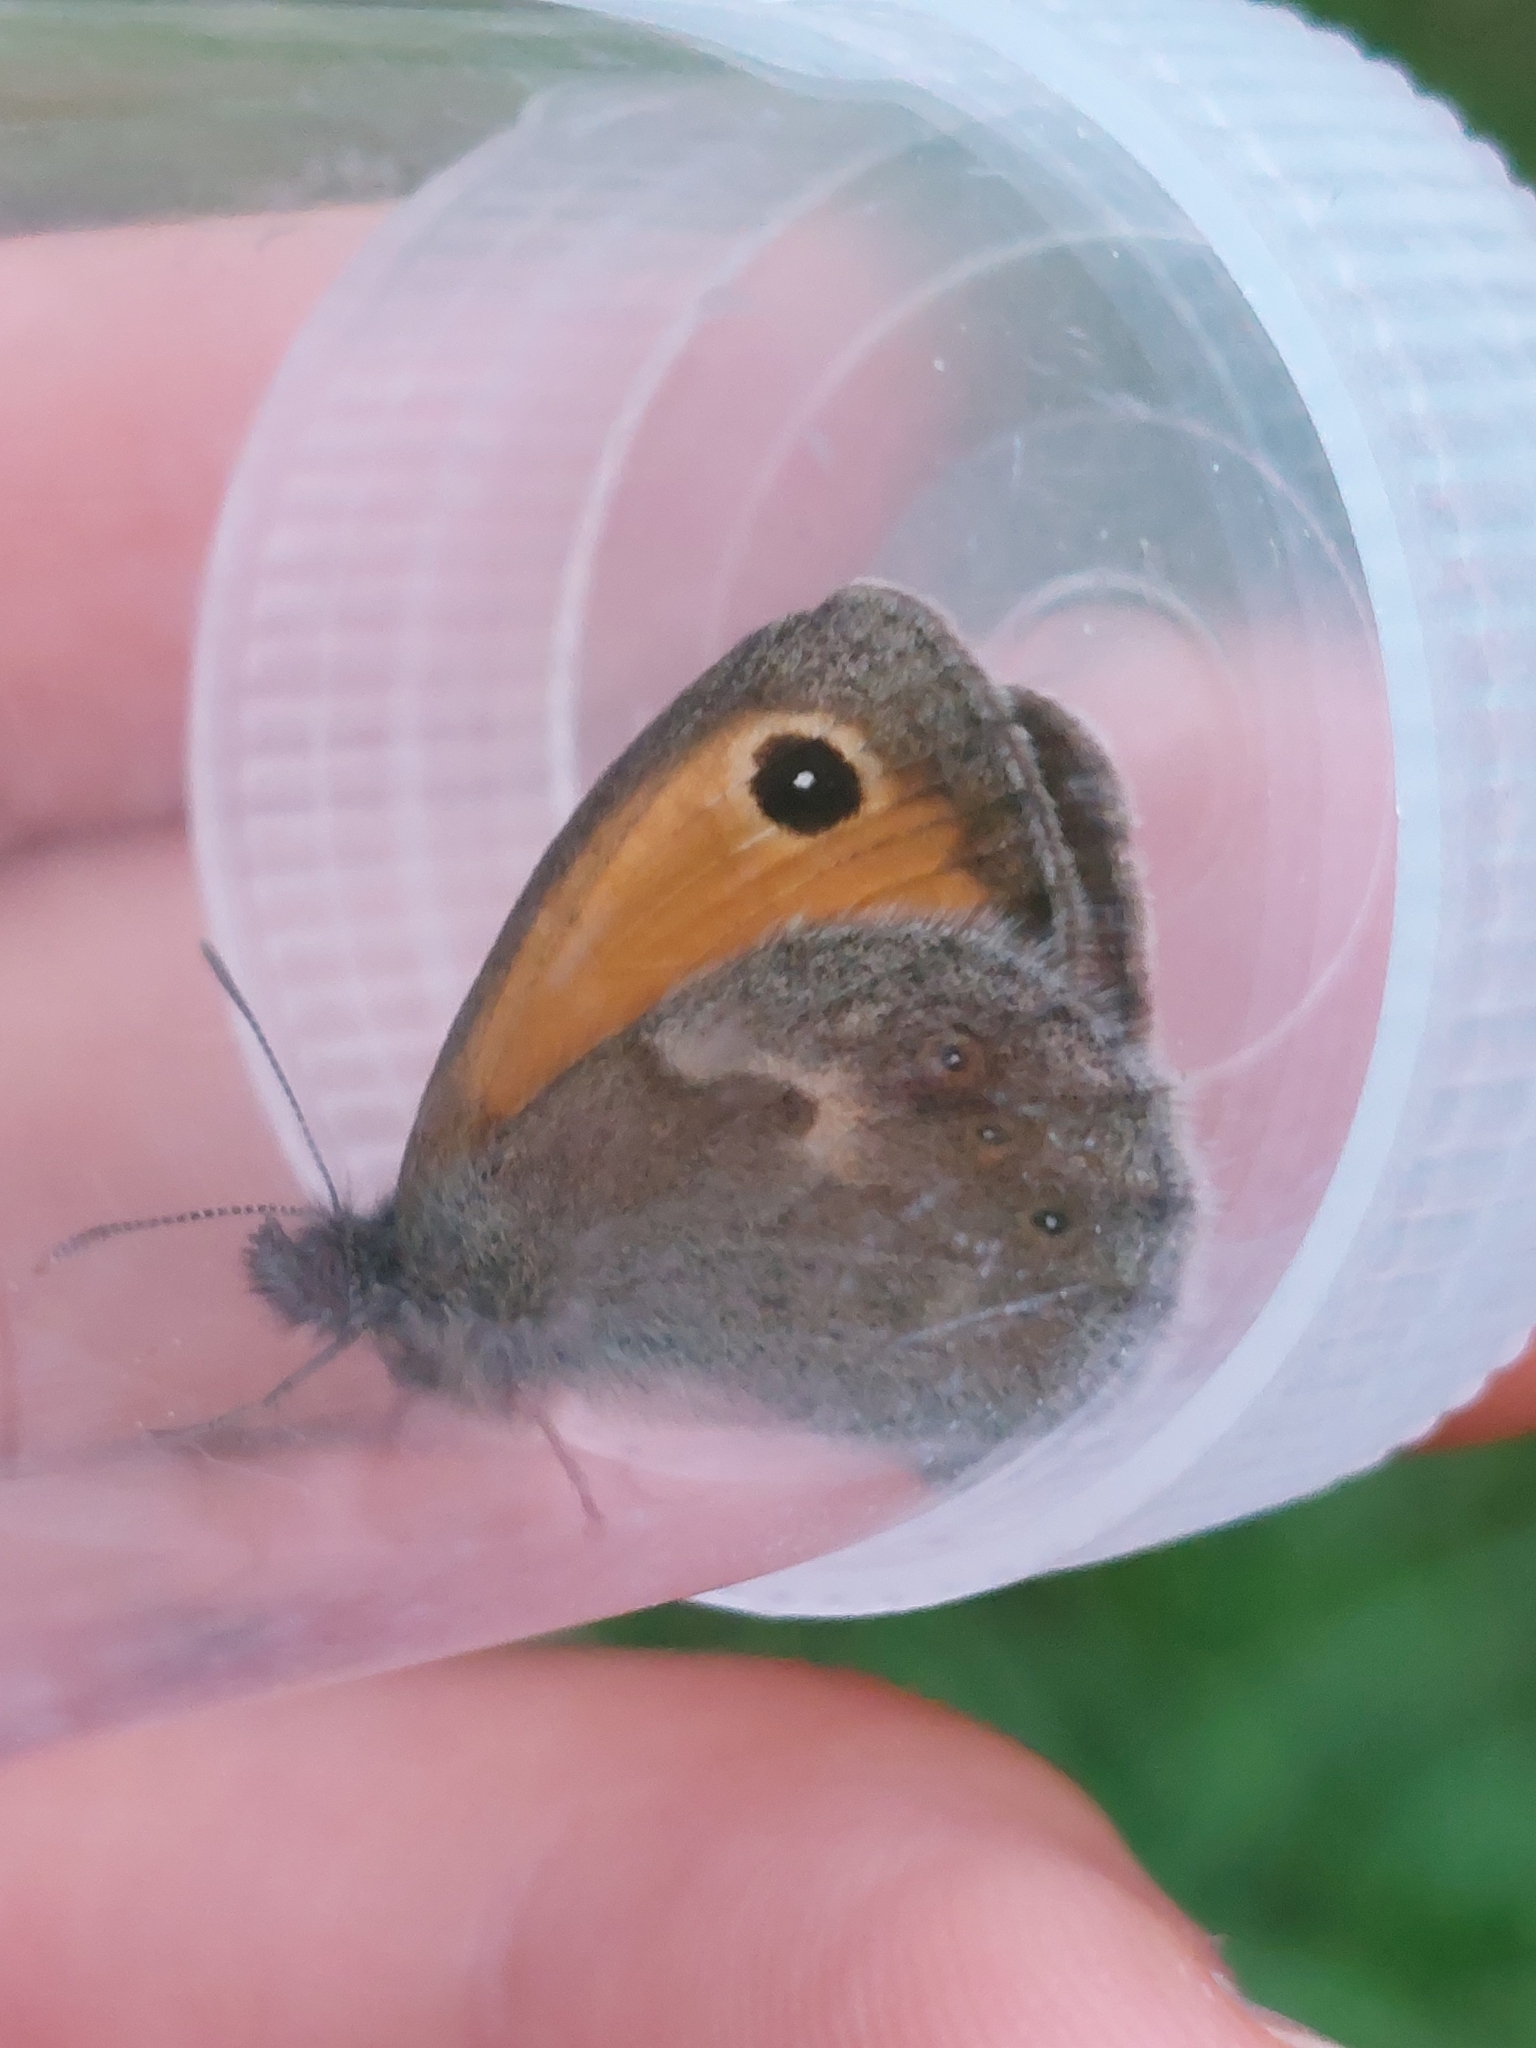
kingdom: Animalia
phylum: Arthropoda
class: Insecta
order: Lepidoptera
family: Nymphalidae
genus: Coenonympha
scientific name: Coenonympha pamphilus
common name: Small heath
